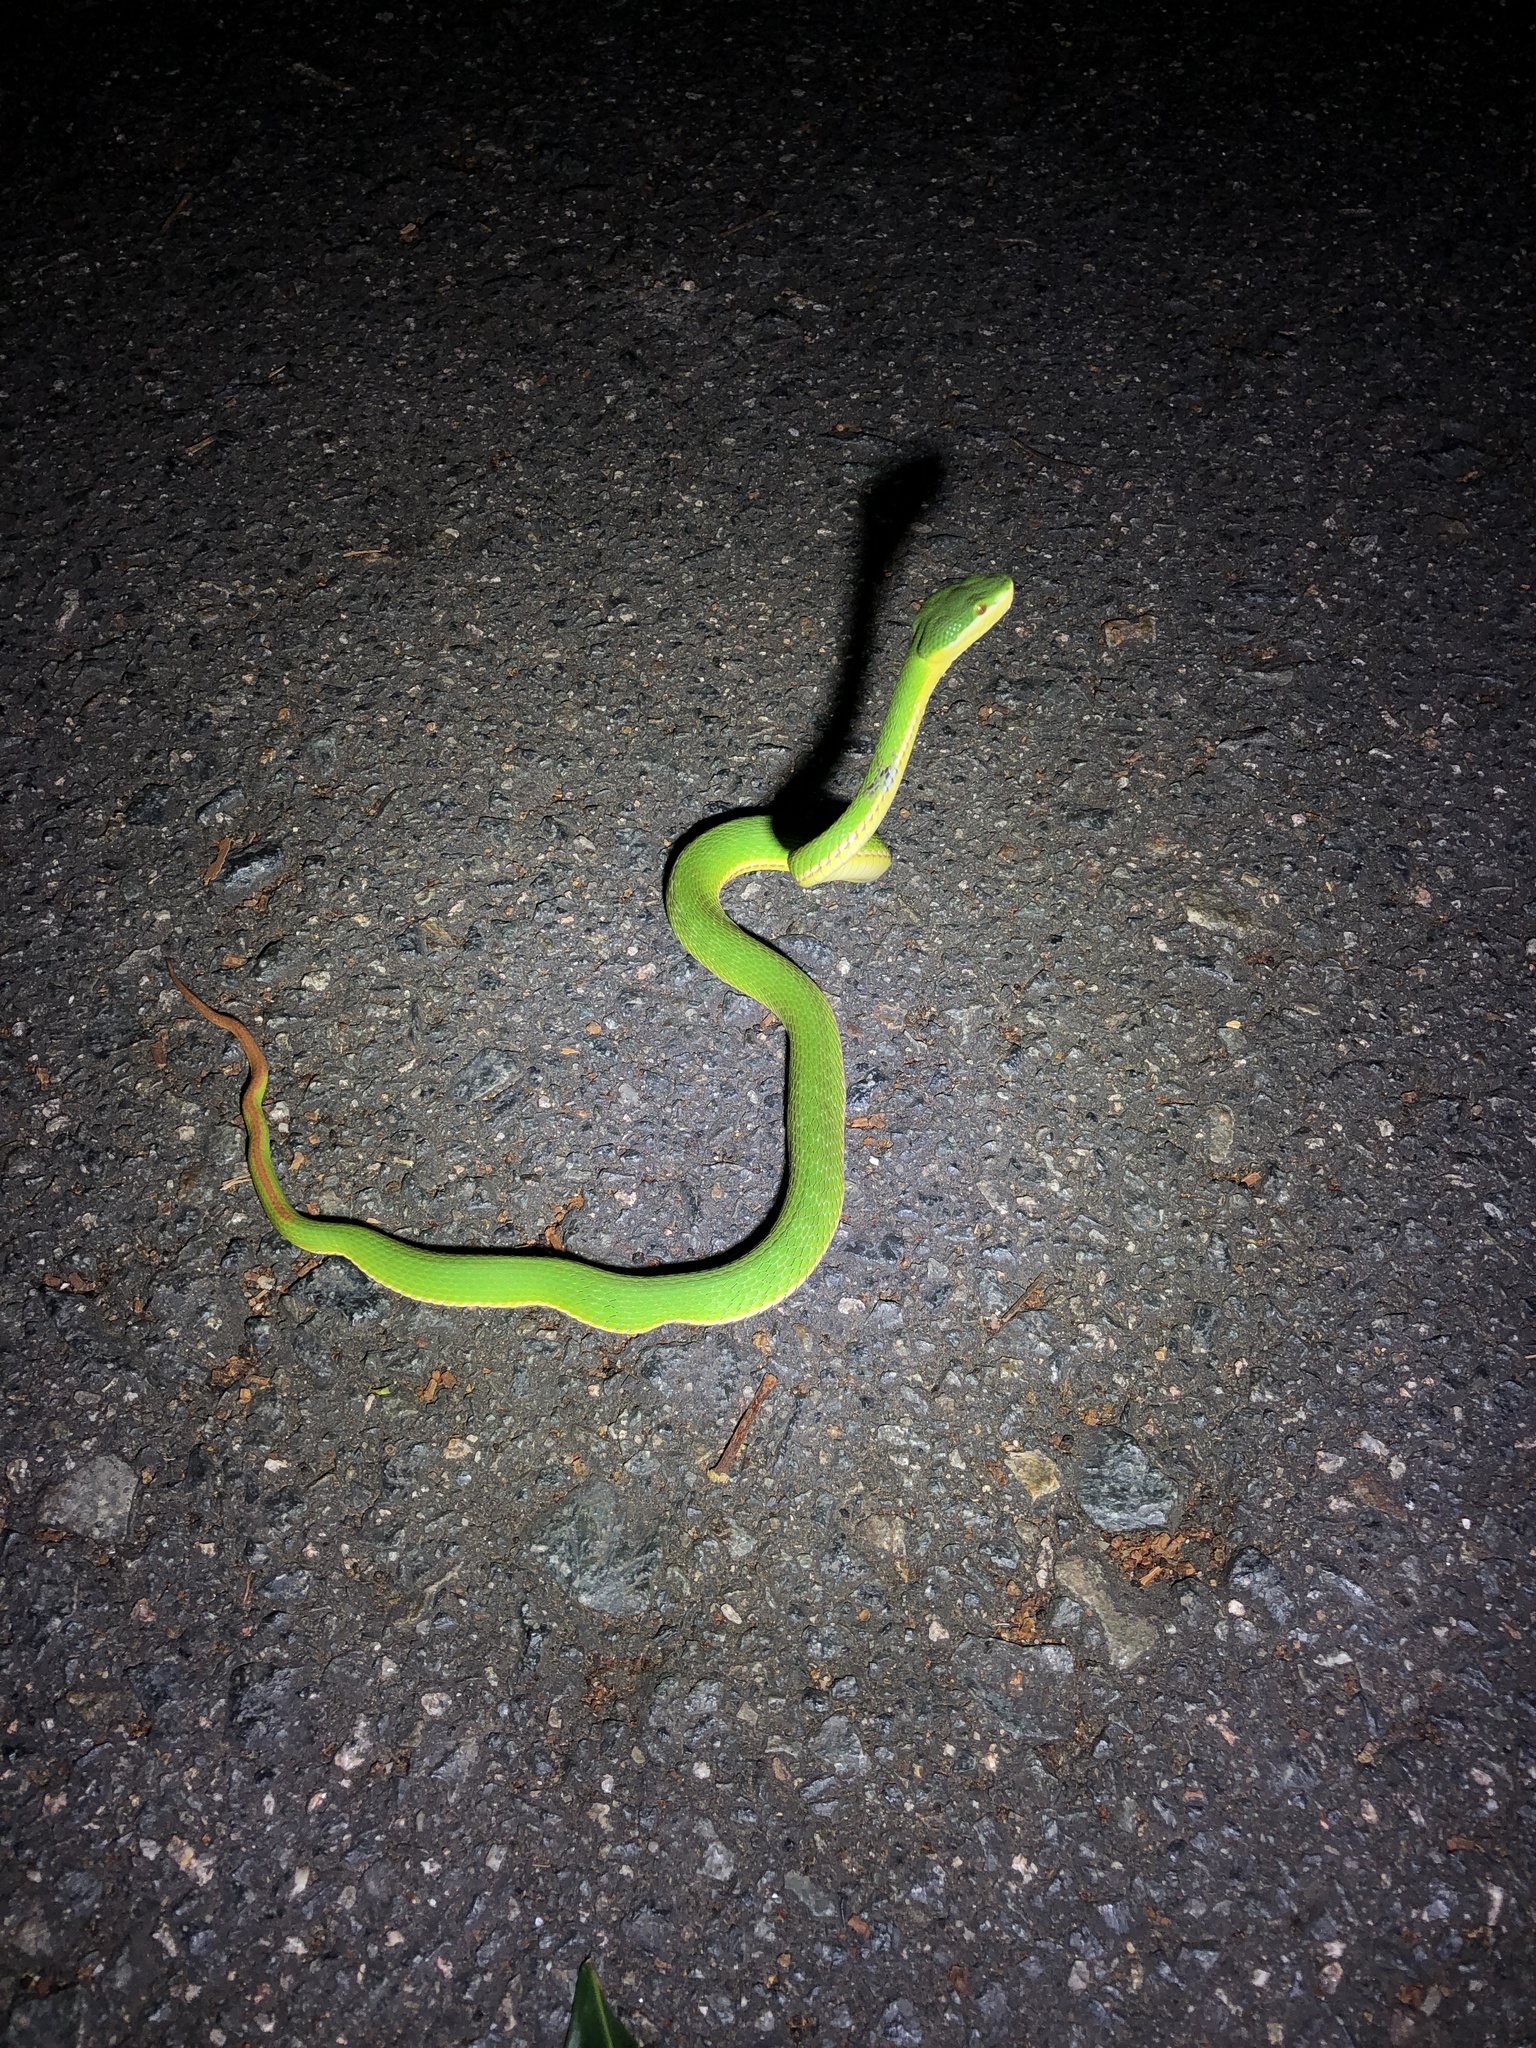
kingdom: Animalia
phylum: Chordata
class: Squamata
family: Viperidae
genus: Trimeresurus
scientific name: Trimeresurus albolabris
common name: White-lipped pitviper
